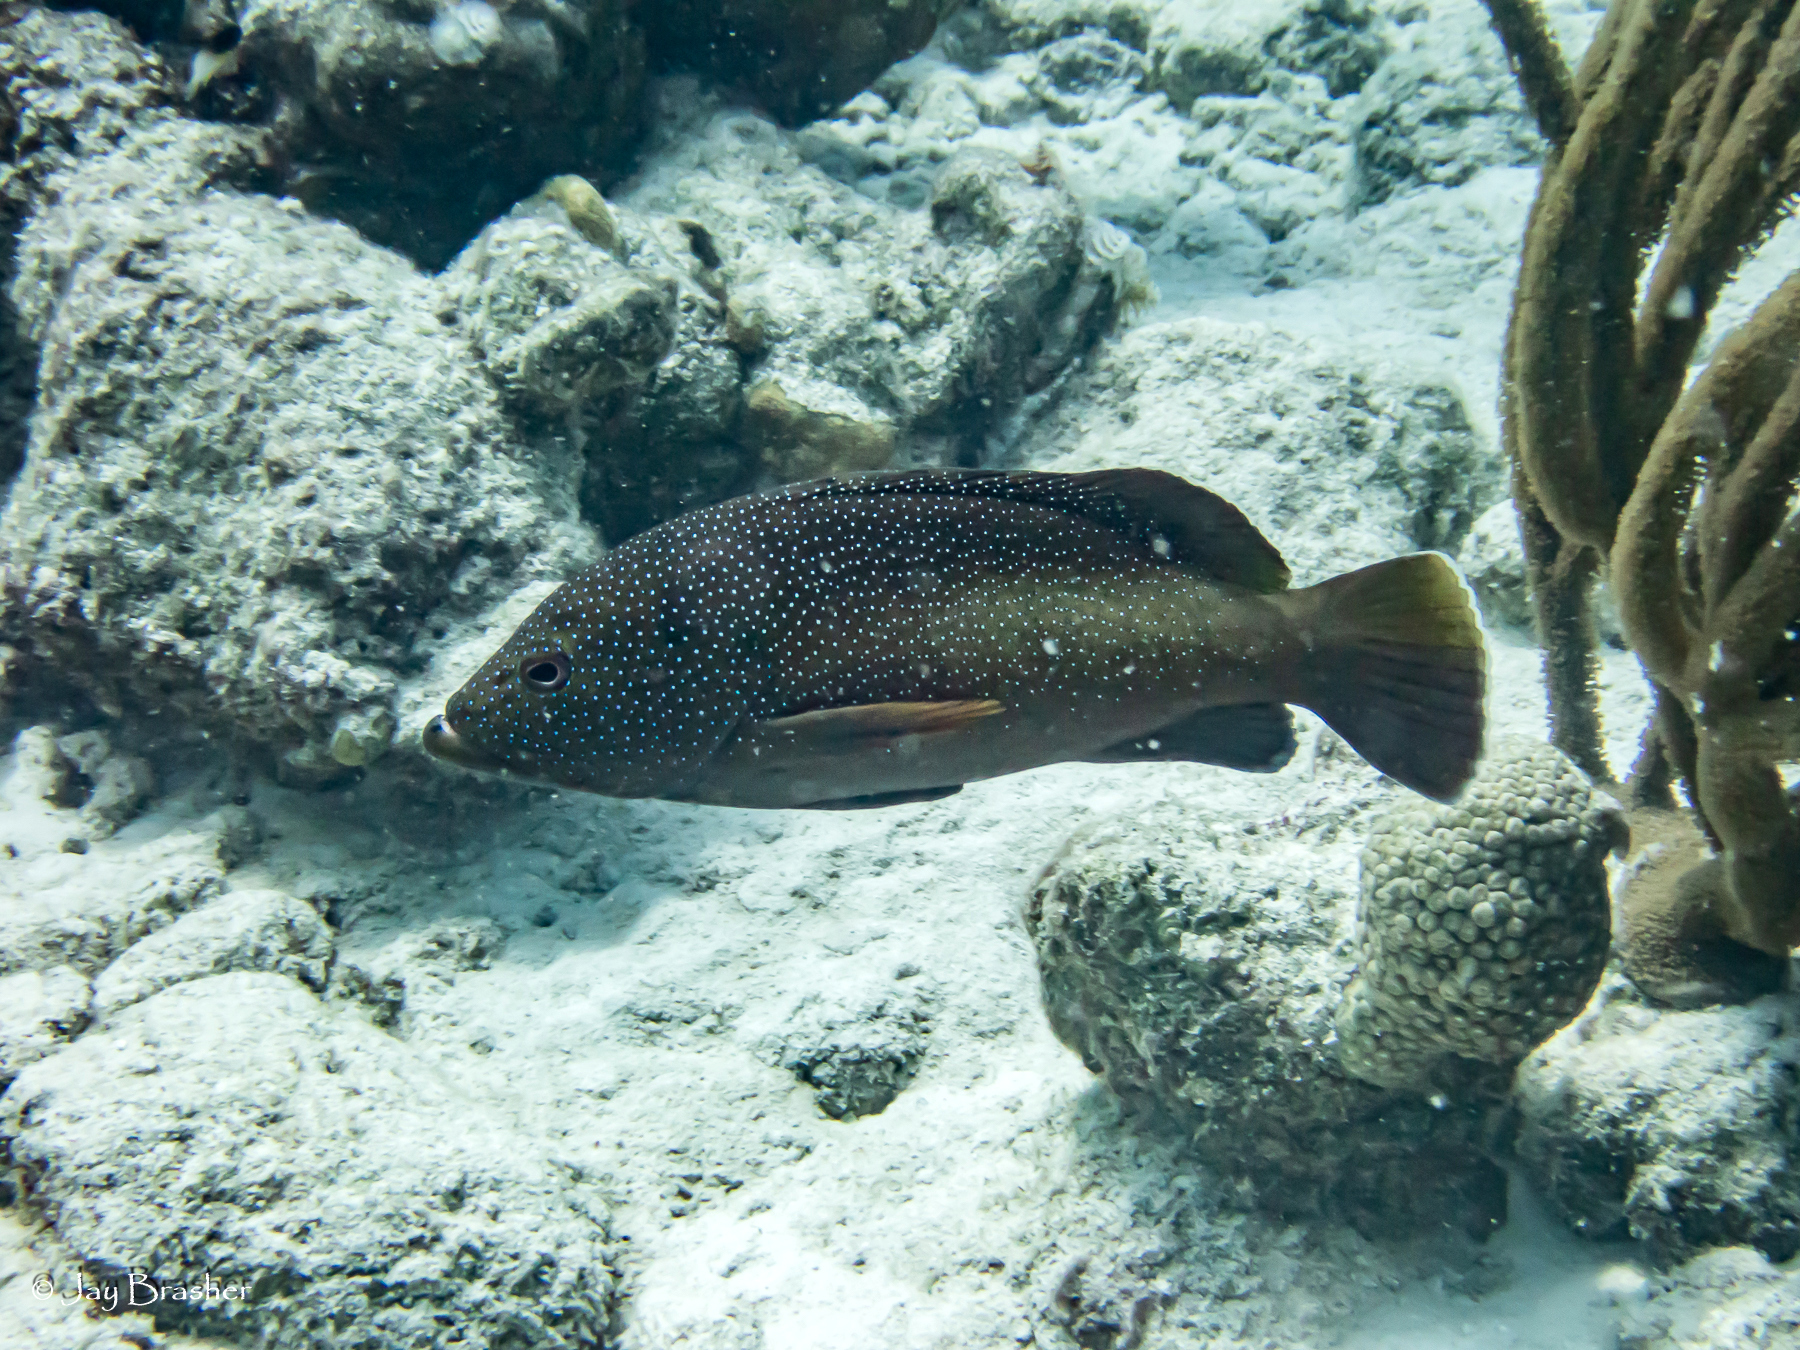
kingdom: Animalia
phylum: Chordata
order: Perciformes
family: Serranidae
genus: Cephalopholis
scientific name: Cephalopholis fulva
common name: Butterfish
